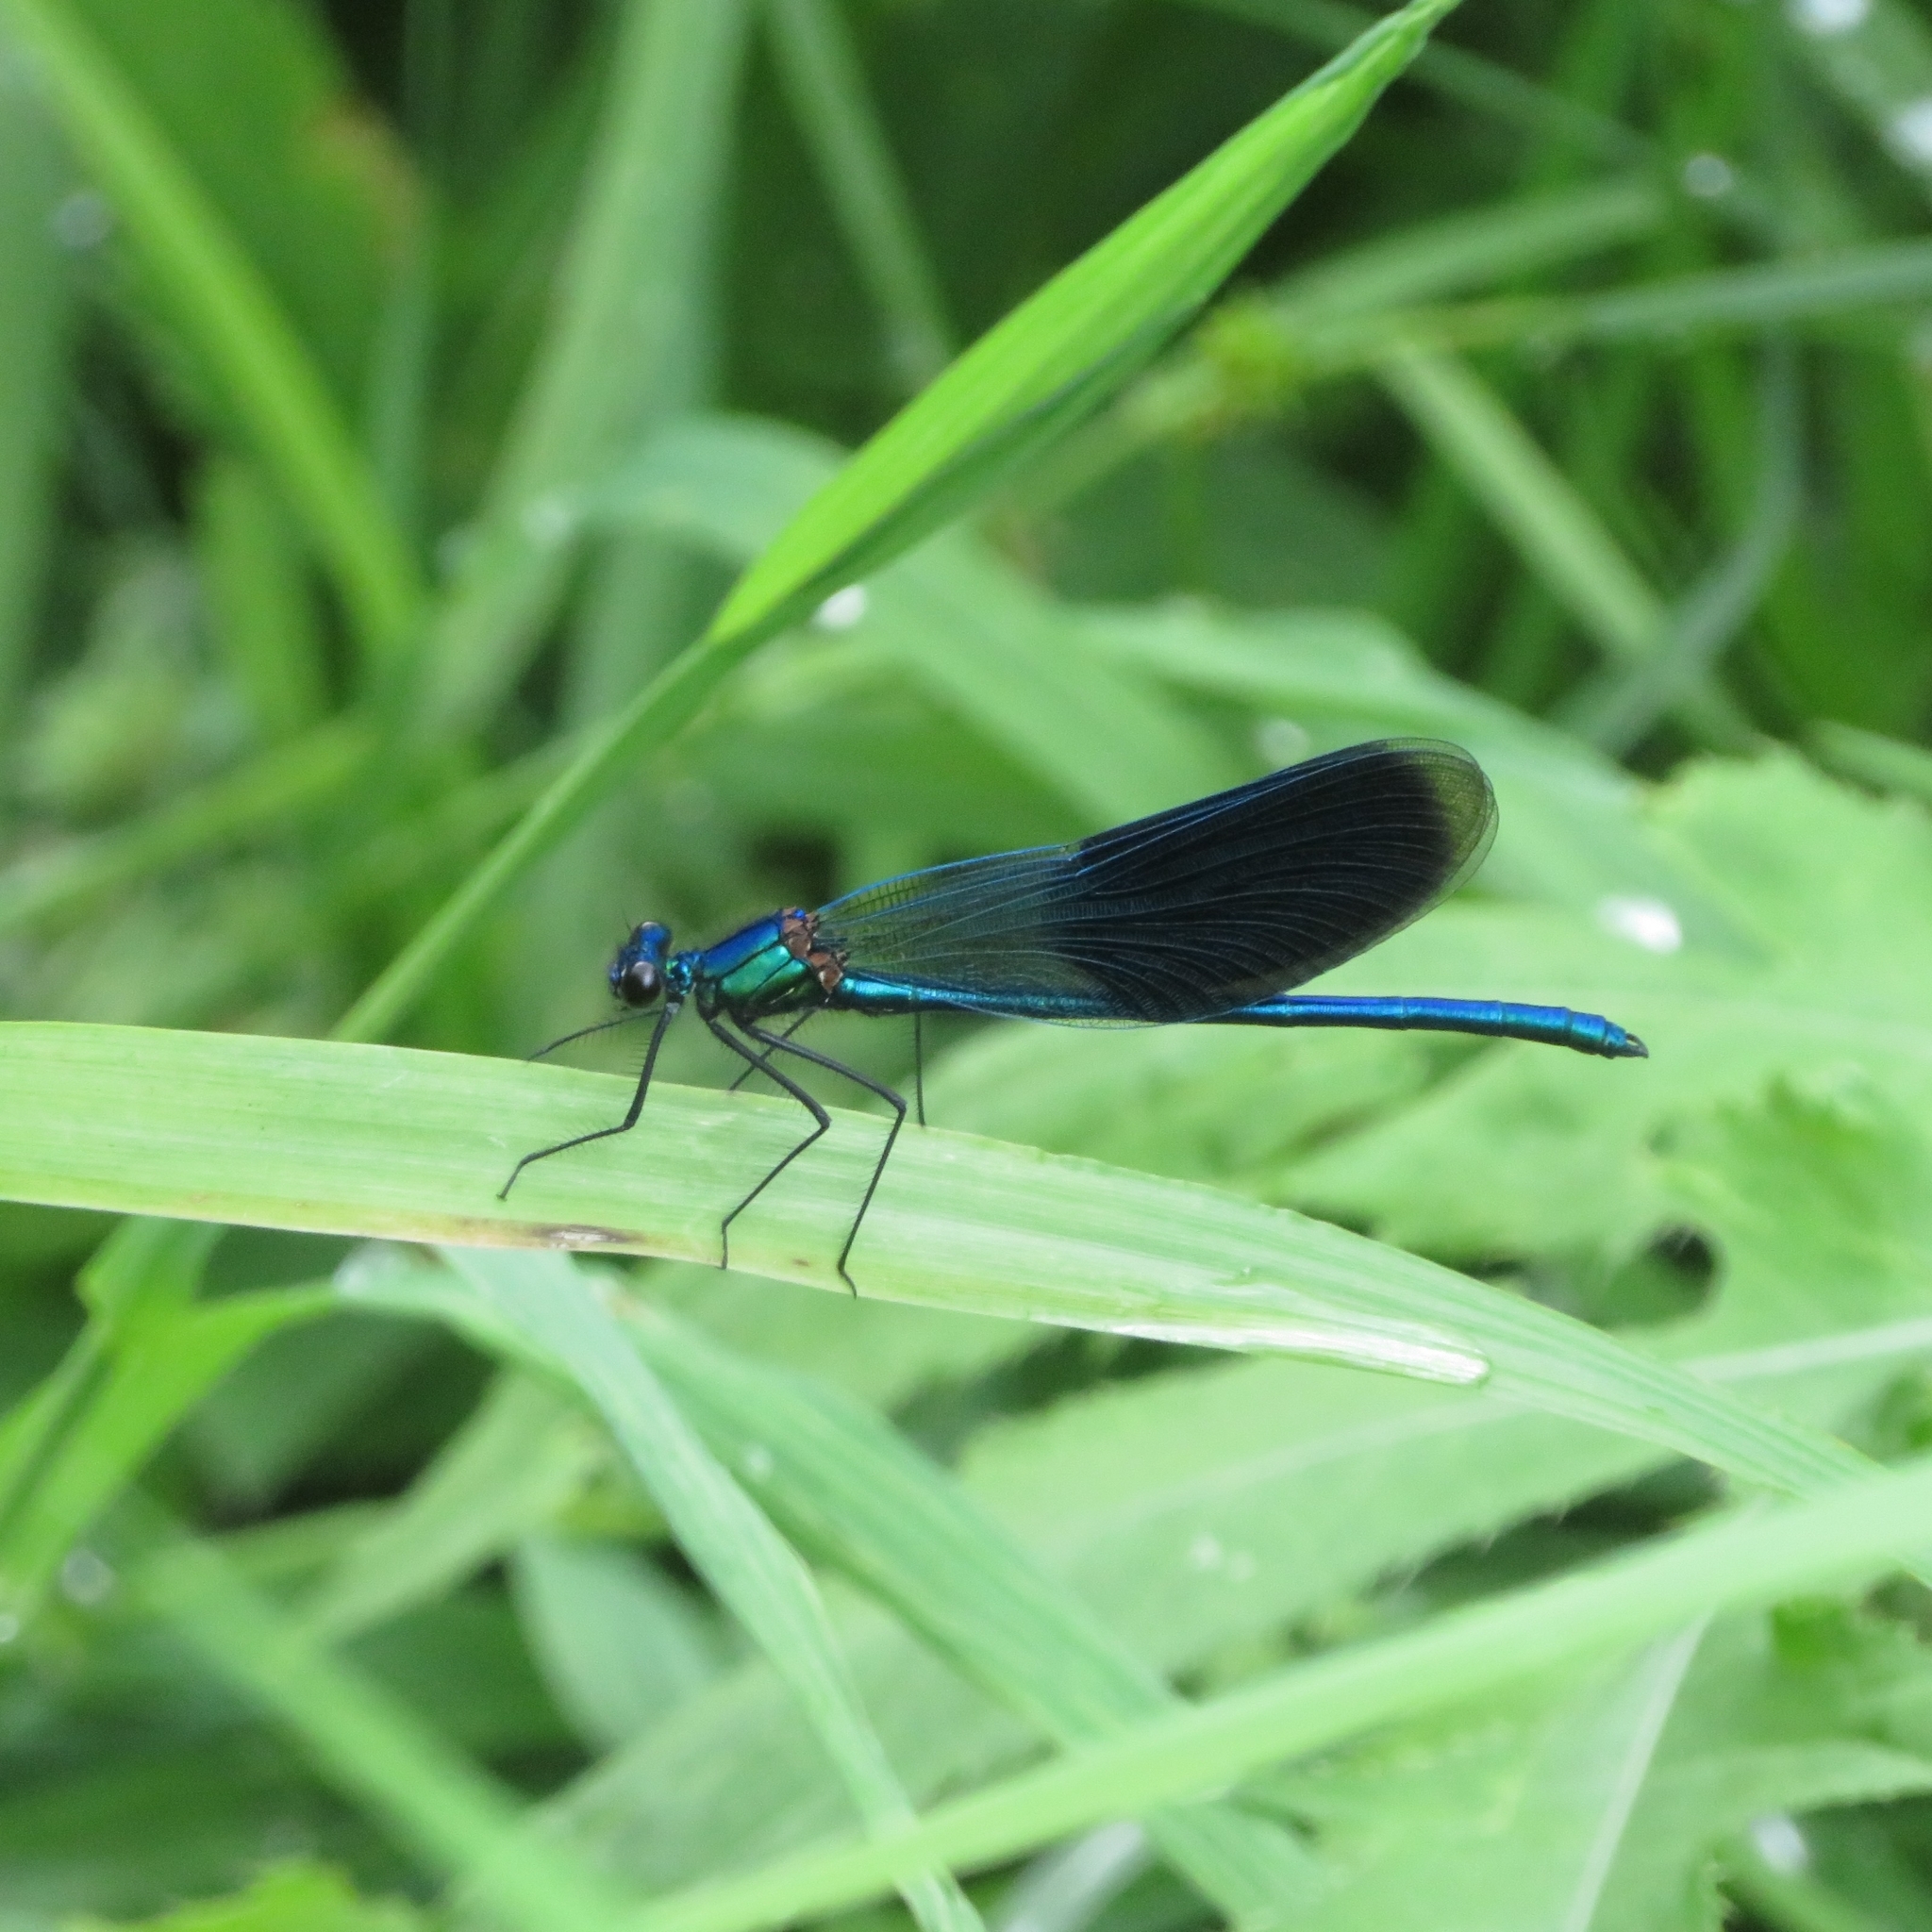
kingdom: Animalia
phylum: Arthropoda
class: Insecta
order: Odonata
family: Calopterygidae
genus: Calopteryx
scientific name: Calopteryx splendens
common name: Banded demoiselle
